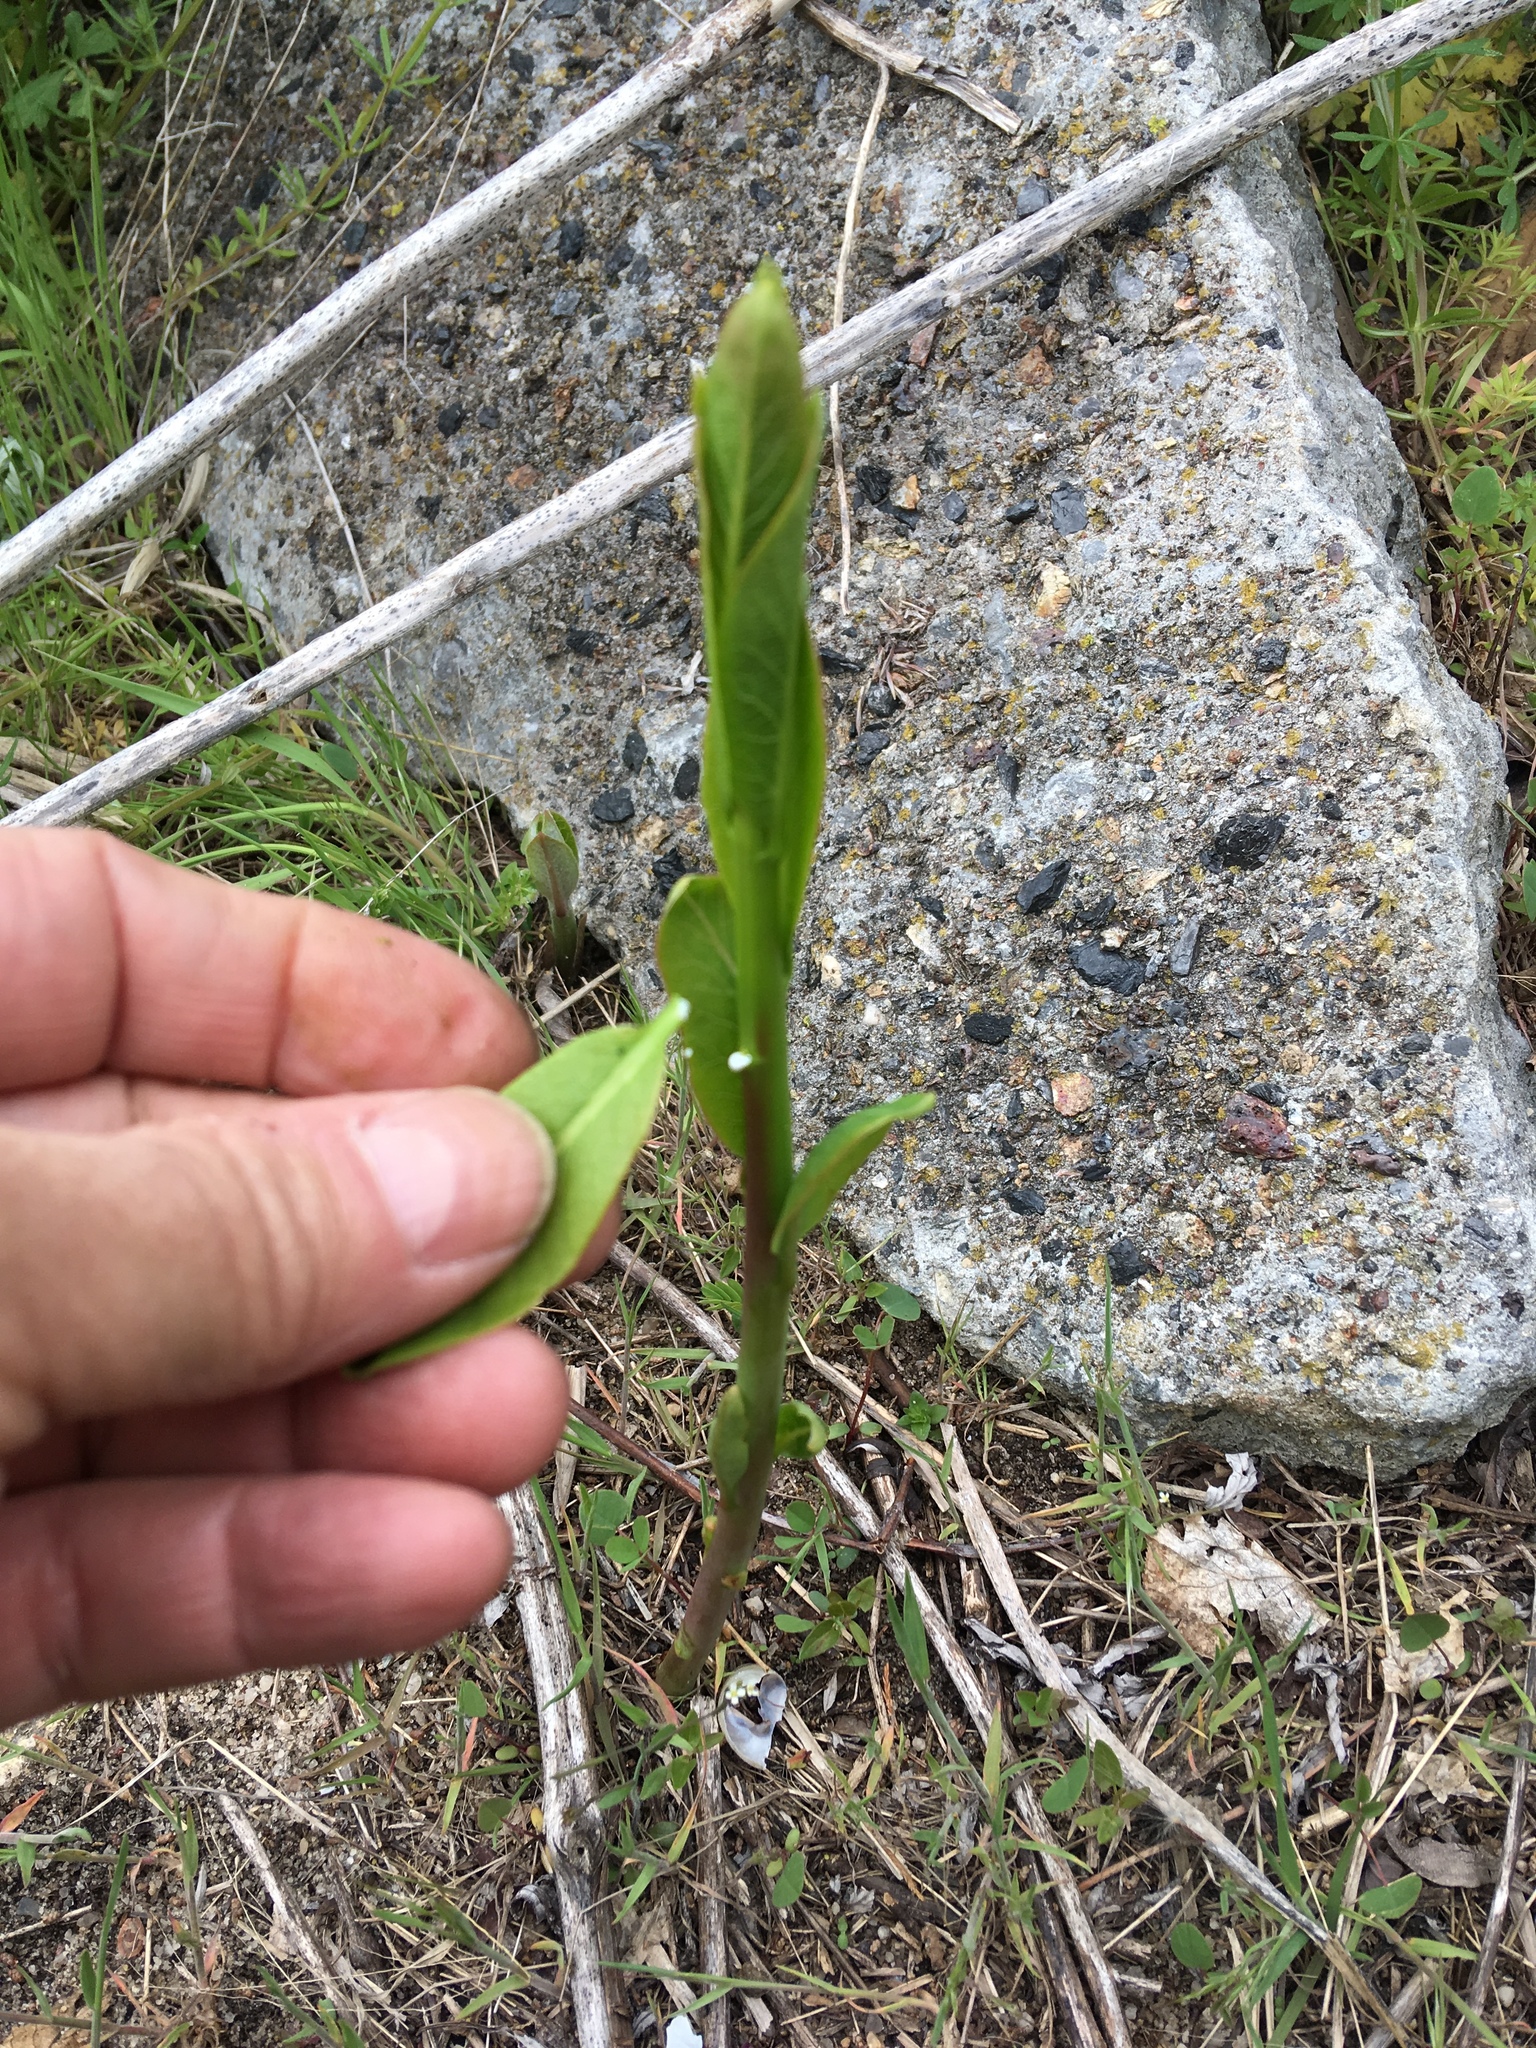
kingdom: Plantae
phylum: Tracheophyta
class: Magnoliopsida
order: Gentianales
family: Apocynaceae
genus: Apocynum
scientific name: Apocynum cannabinum
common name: Hemp dogbane
